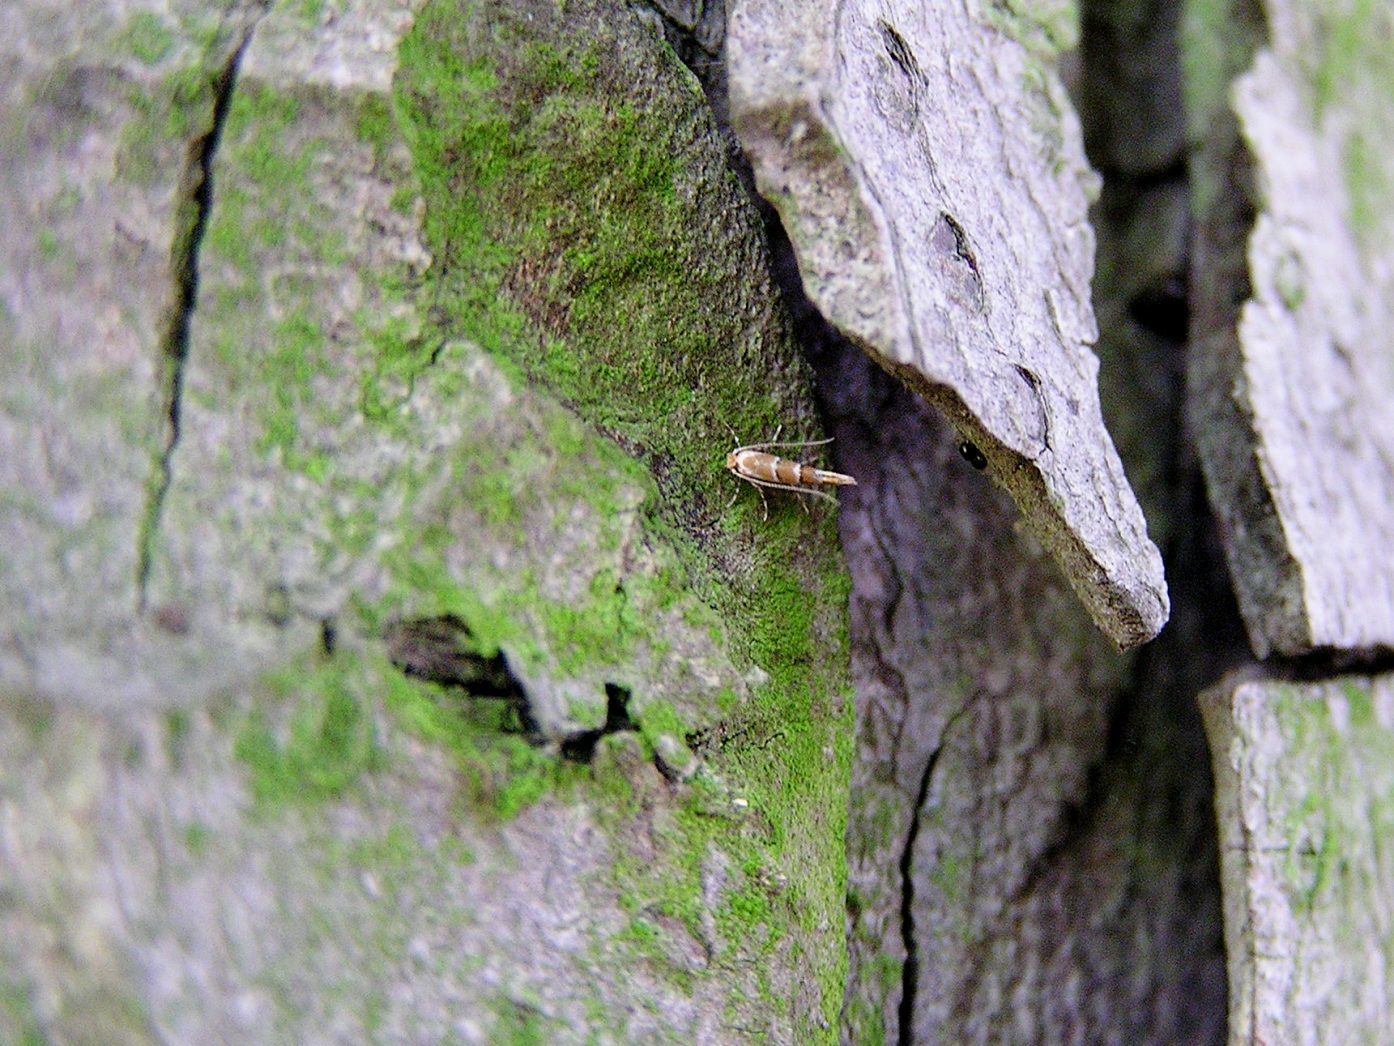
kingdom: Animalia
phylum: Arthropoda
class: Insecta
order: Lepidoptera
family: Gracillariidae
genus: Cameraria
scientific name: Cameraria ohridella
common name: Horse-chestnut leaf-miner
